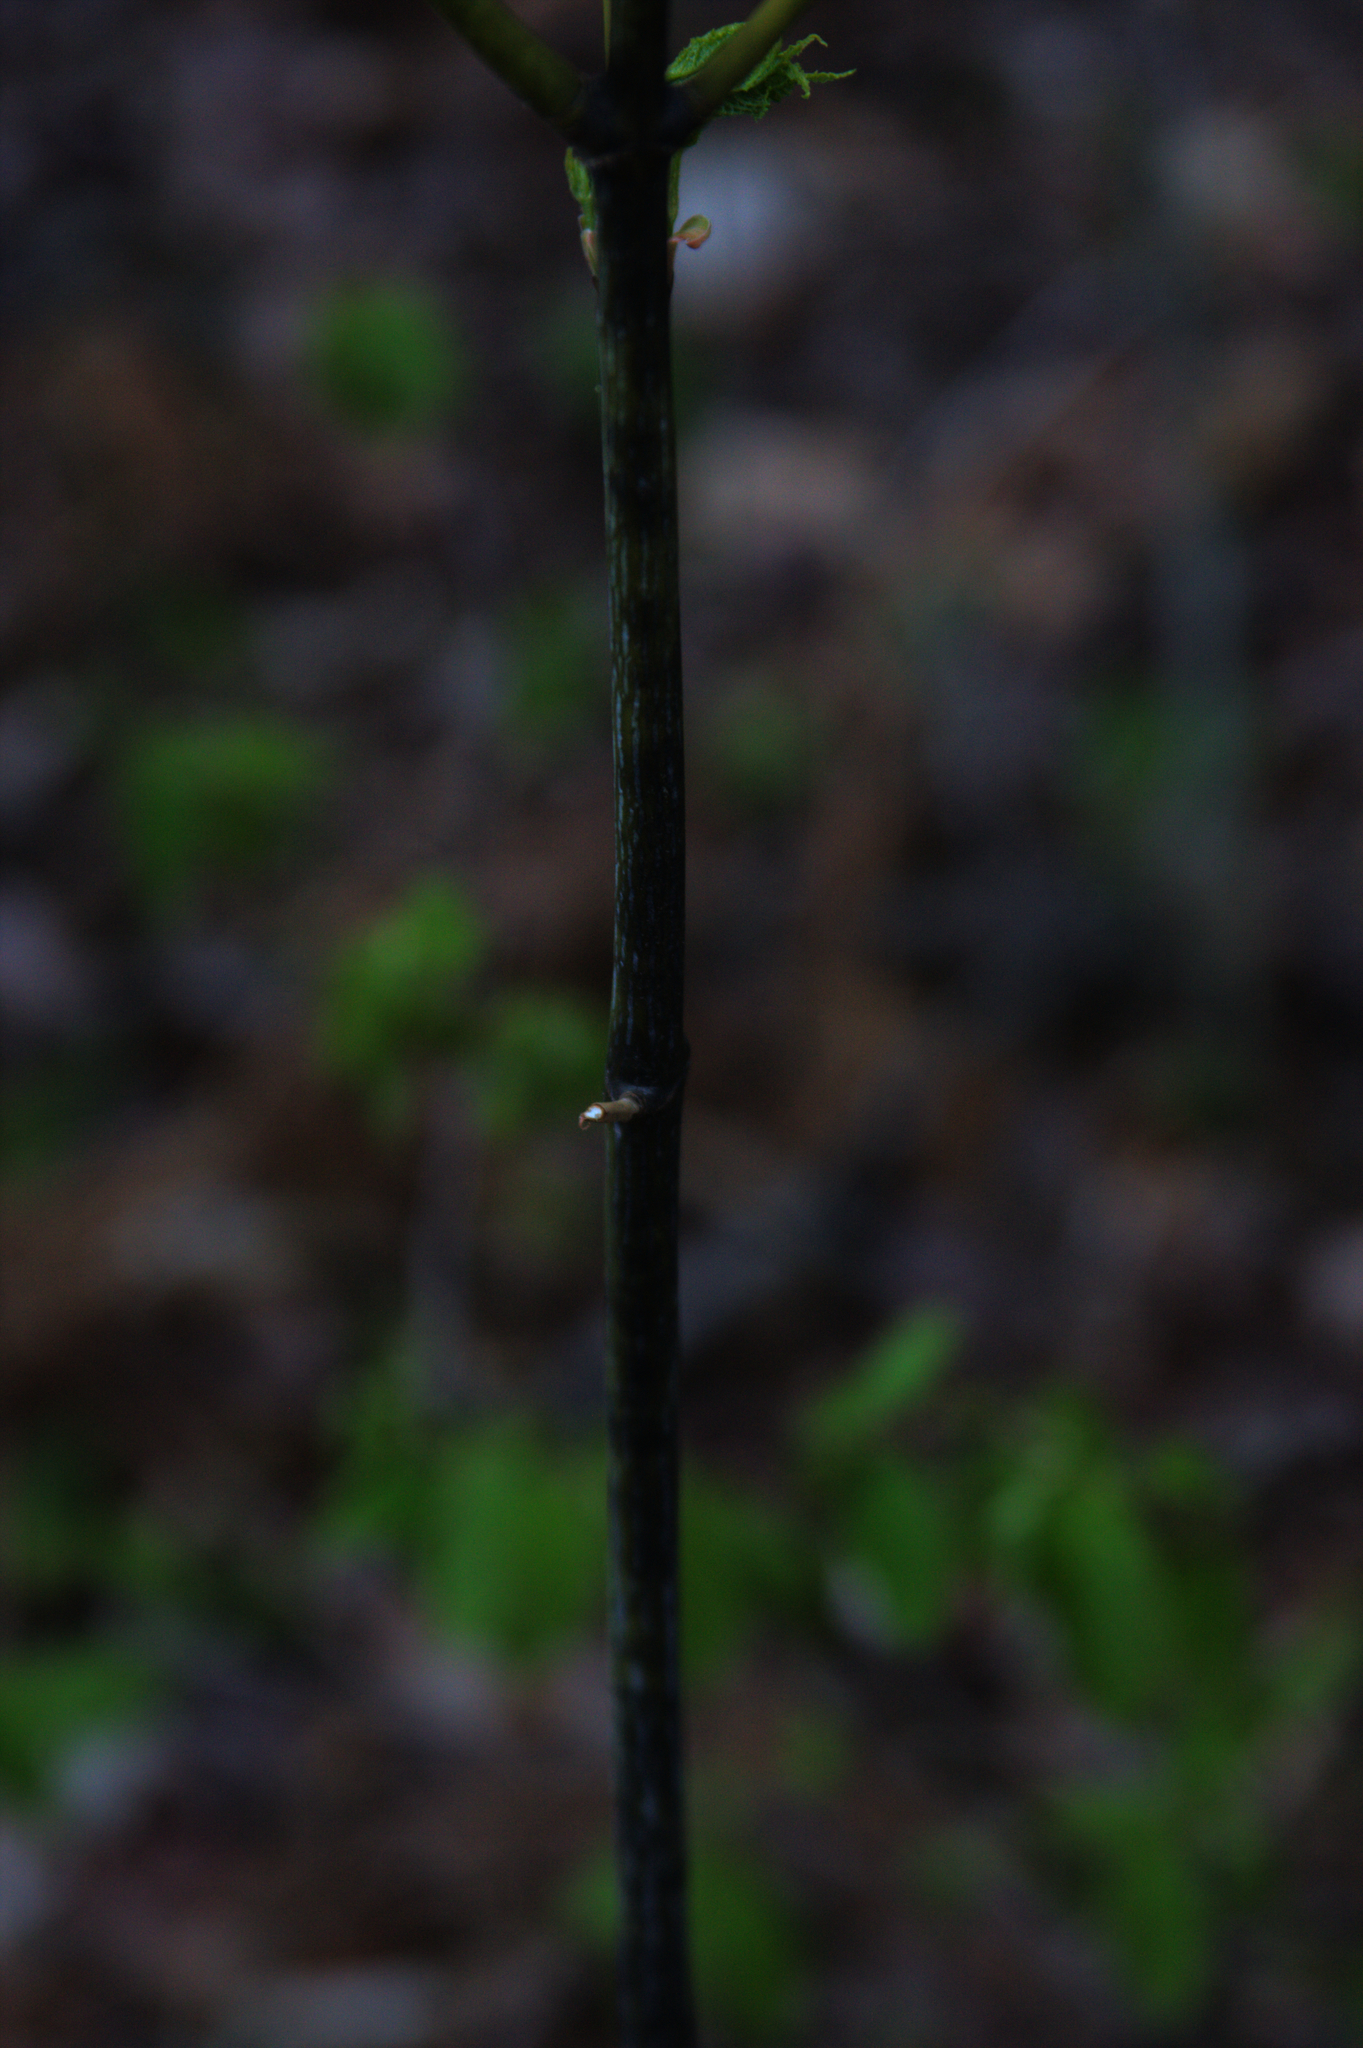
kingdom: Plantae
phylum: Tracheophyta
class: Magnoliopsida
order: Sapindales
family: Sapindaceae
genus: Acer
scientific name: Acer pensylvanicum
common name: Moosewood
